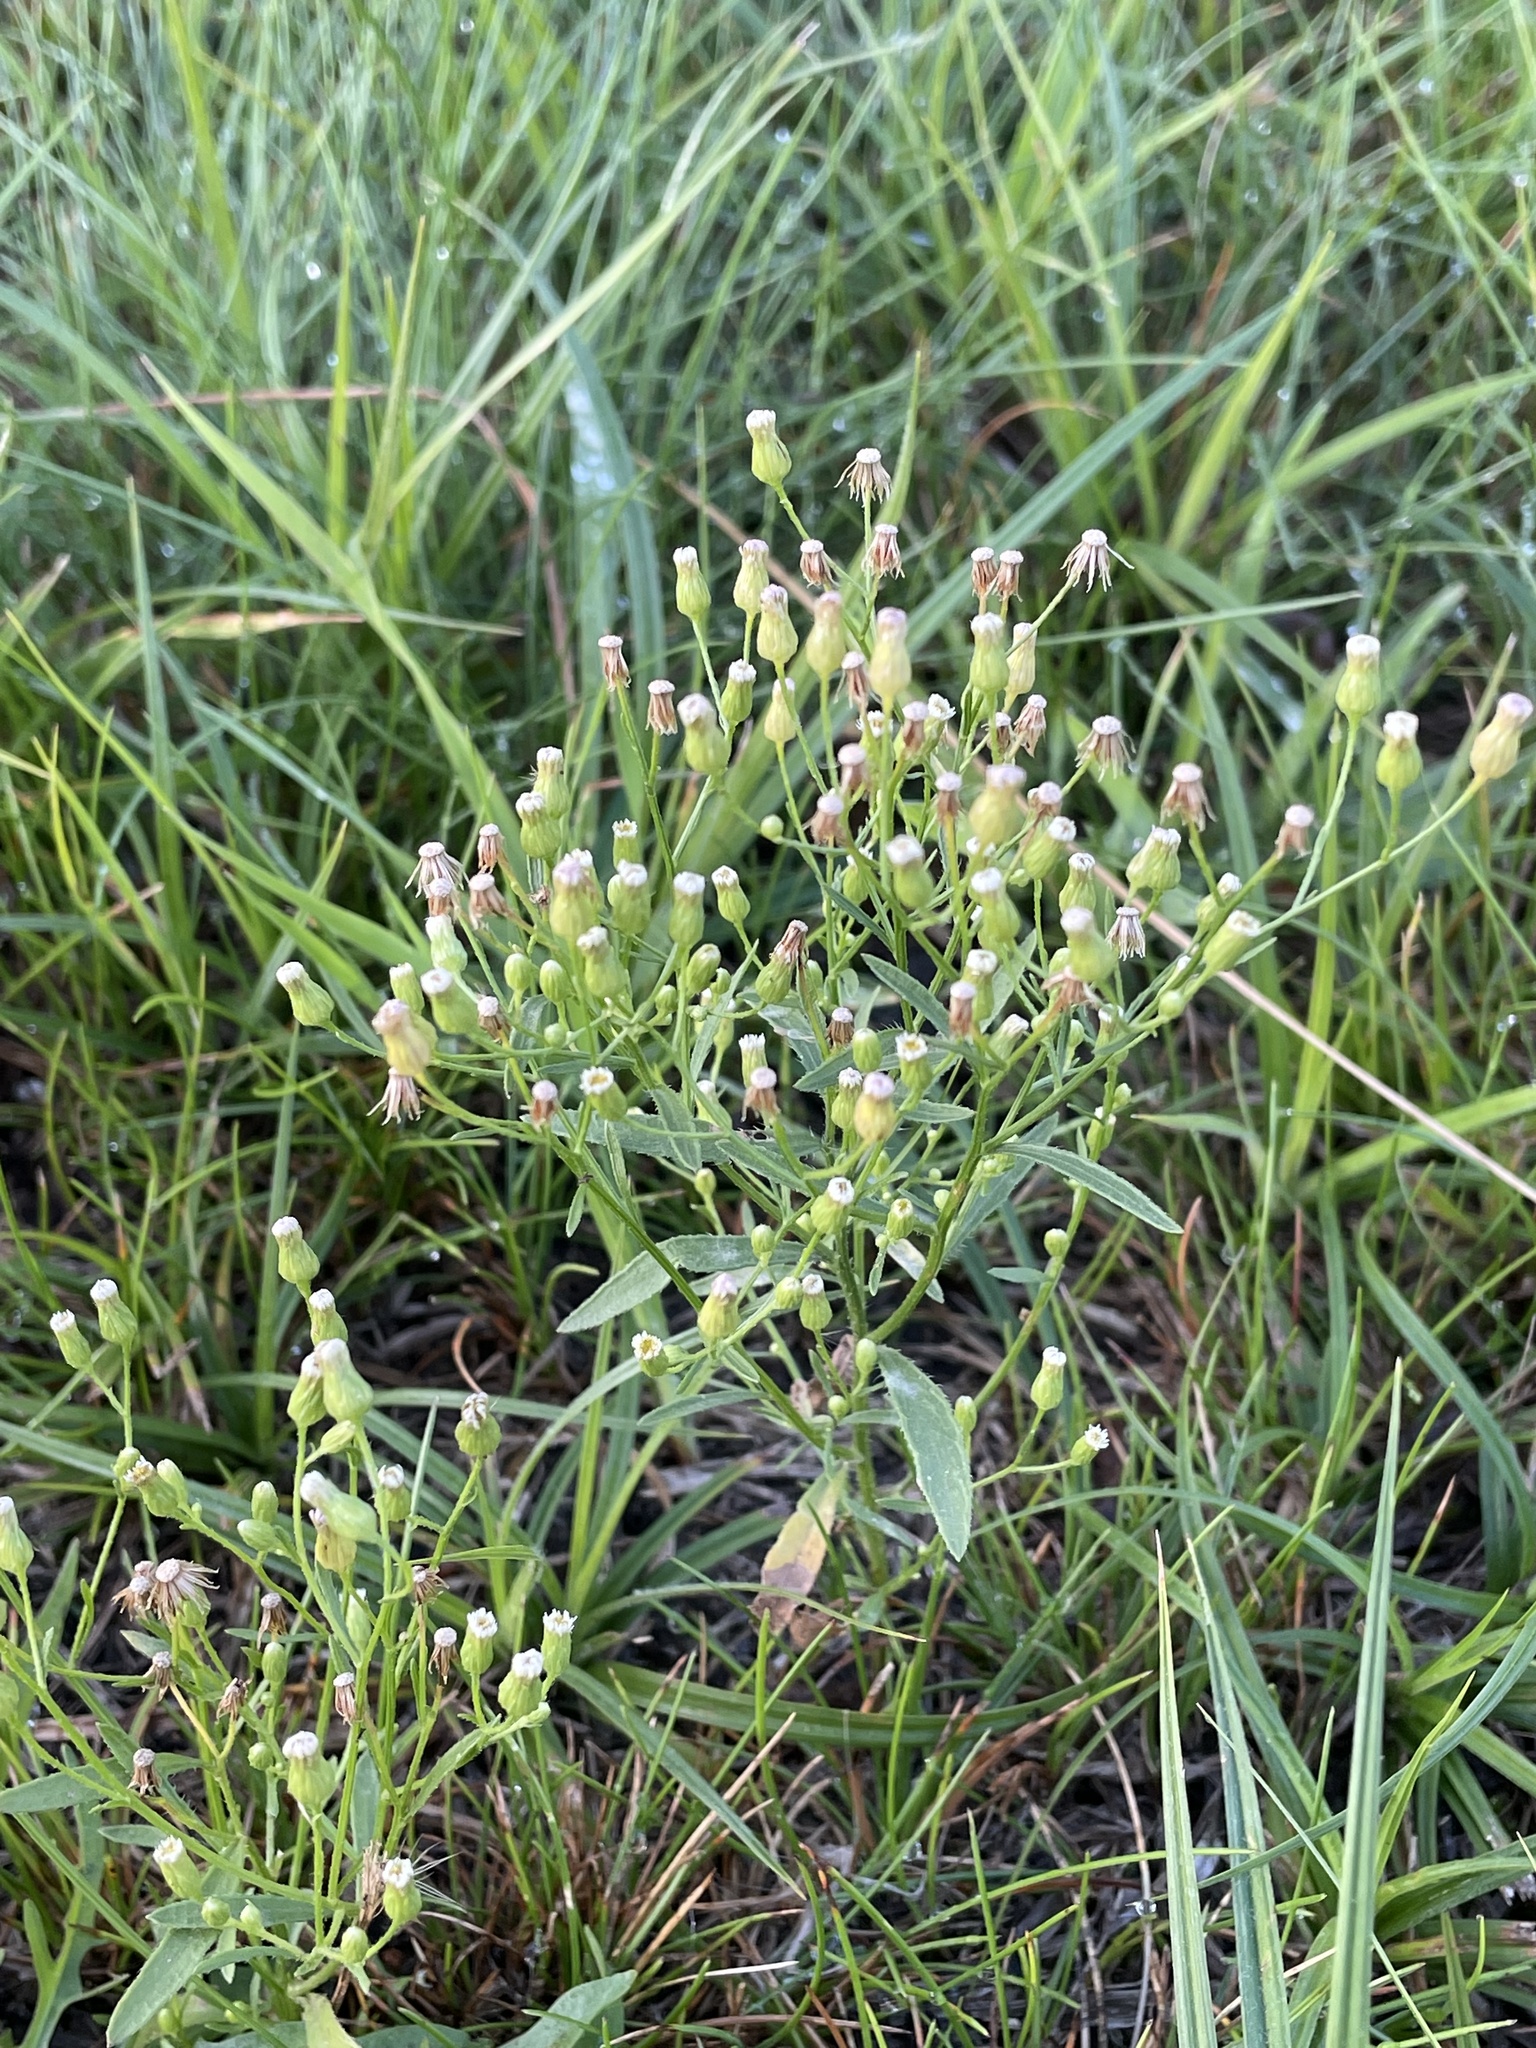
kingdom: Plantae
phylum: Tracheophyta
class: Magnoliopsida
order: Asterales
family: Asteraceae
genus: Erigeron
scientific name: Erigeron canadensis
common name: Canadian fleabane
